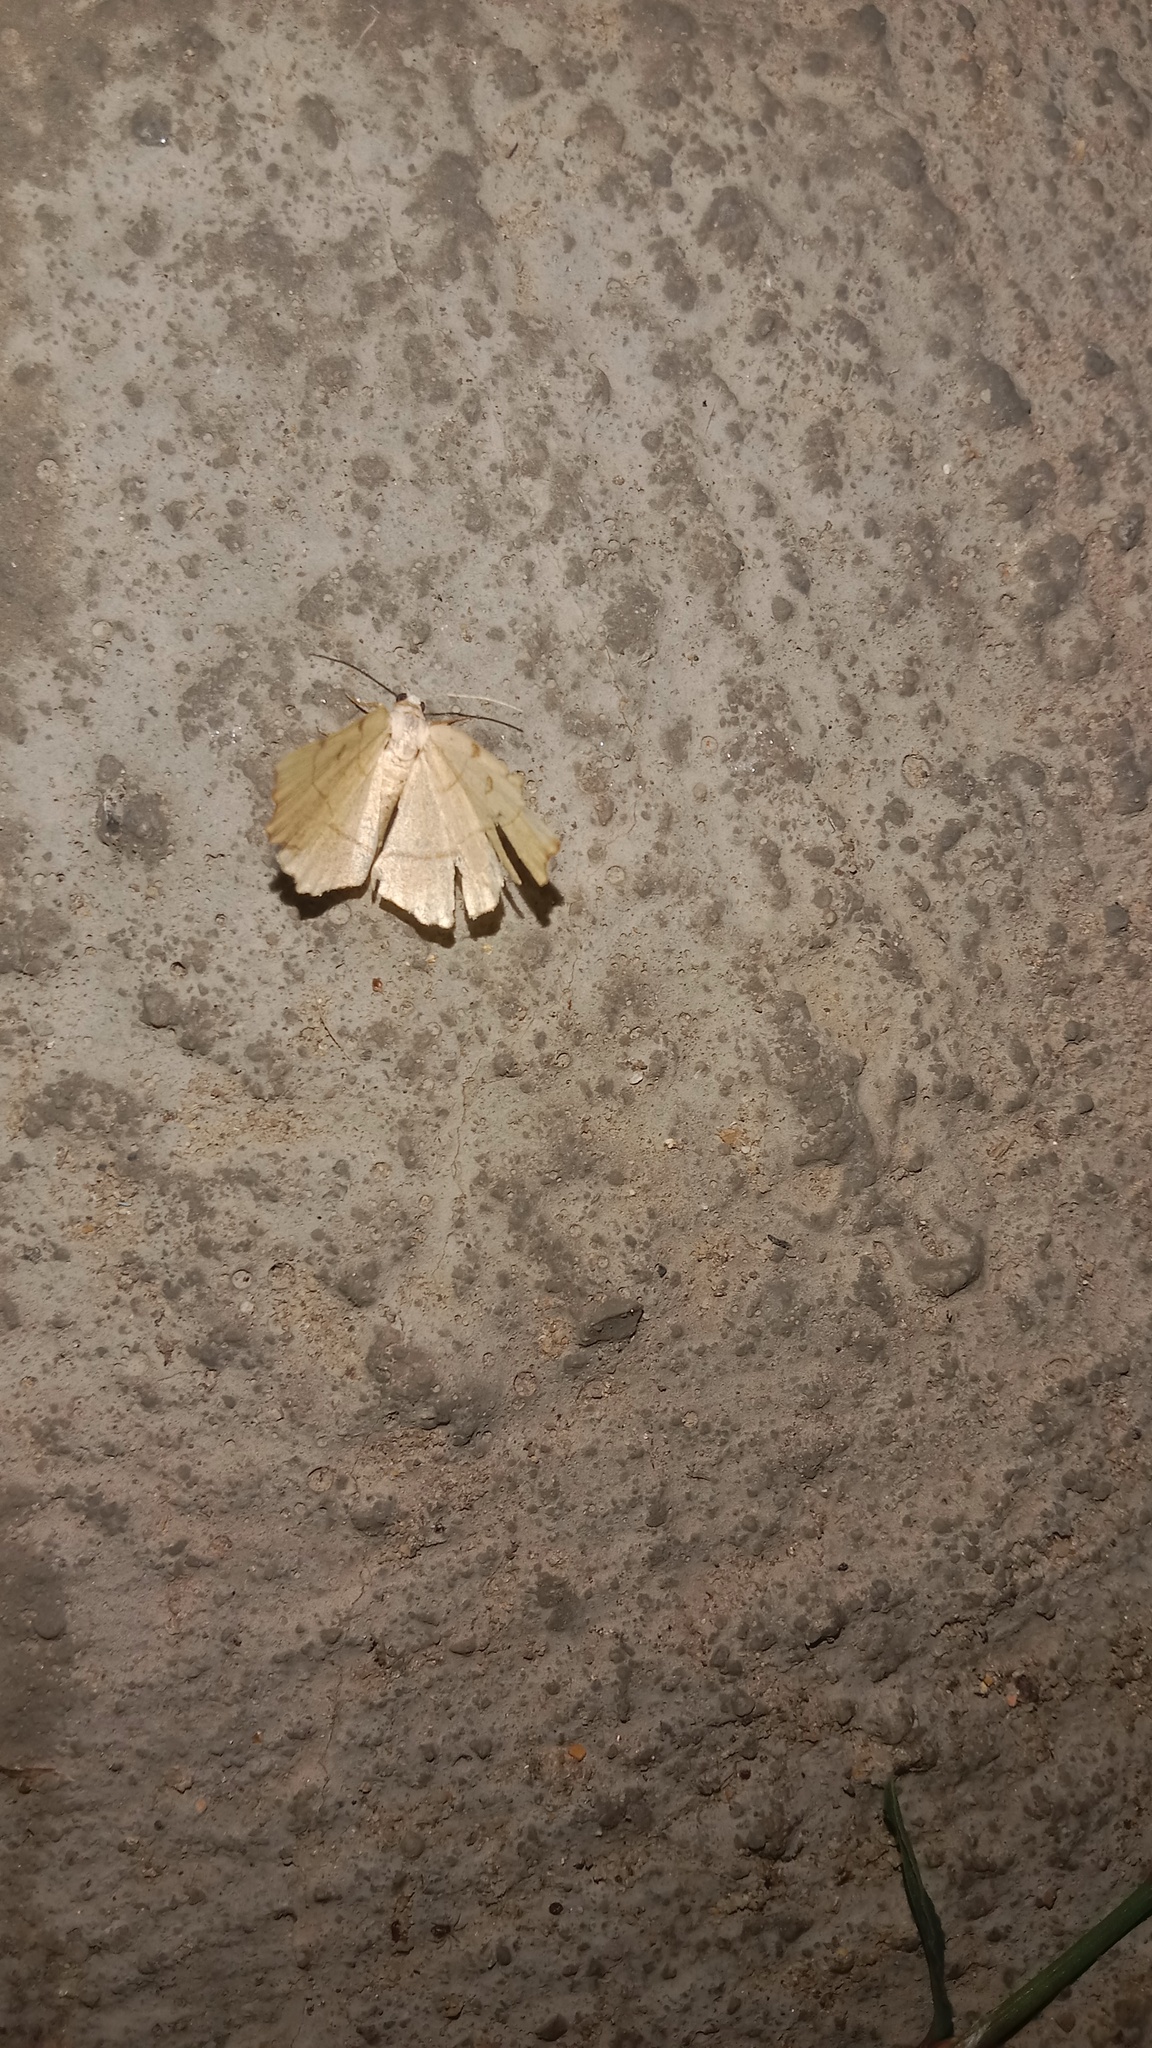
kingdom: Animalia
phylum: Arthropoda
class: Insecta
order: Lepidoptera
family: Geometridae
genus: Eilicrinia
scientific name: Eilicrinia trinotata
